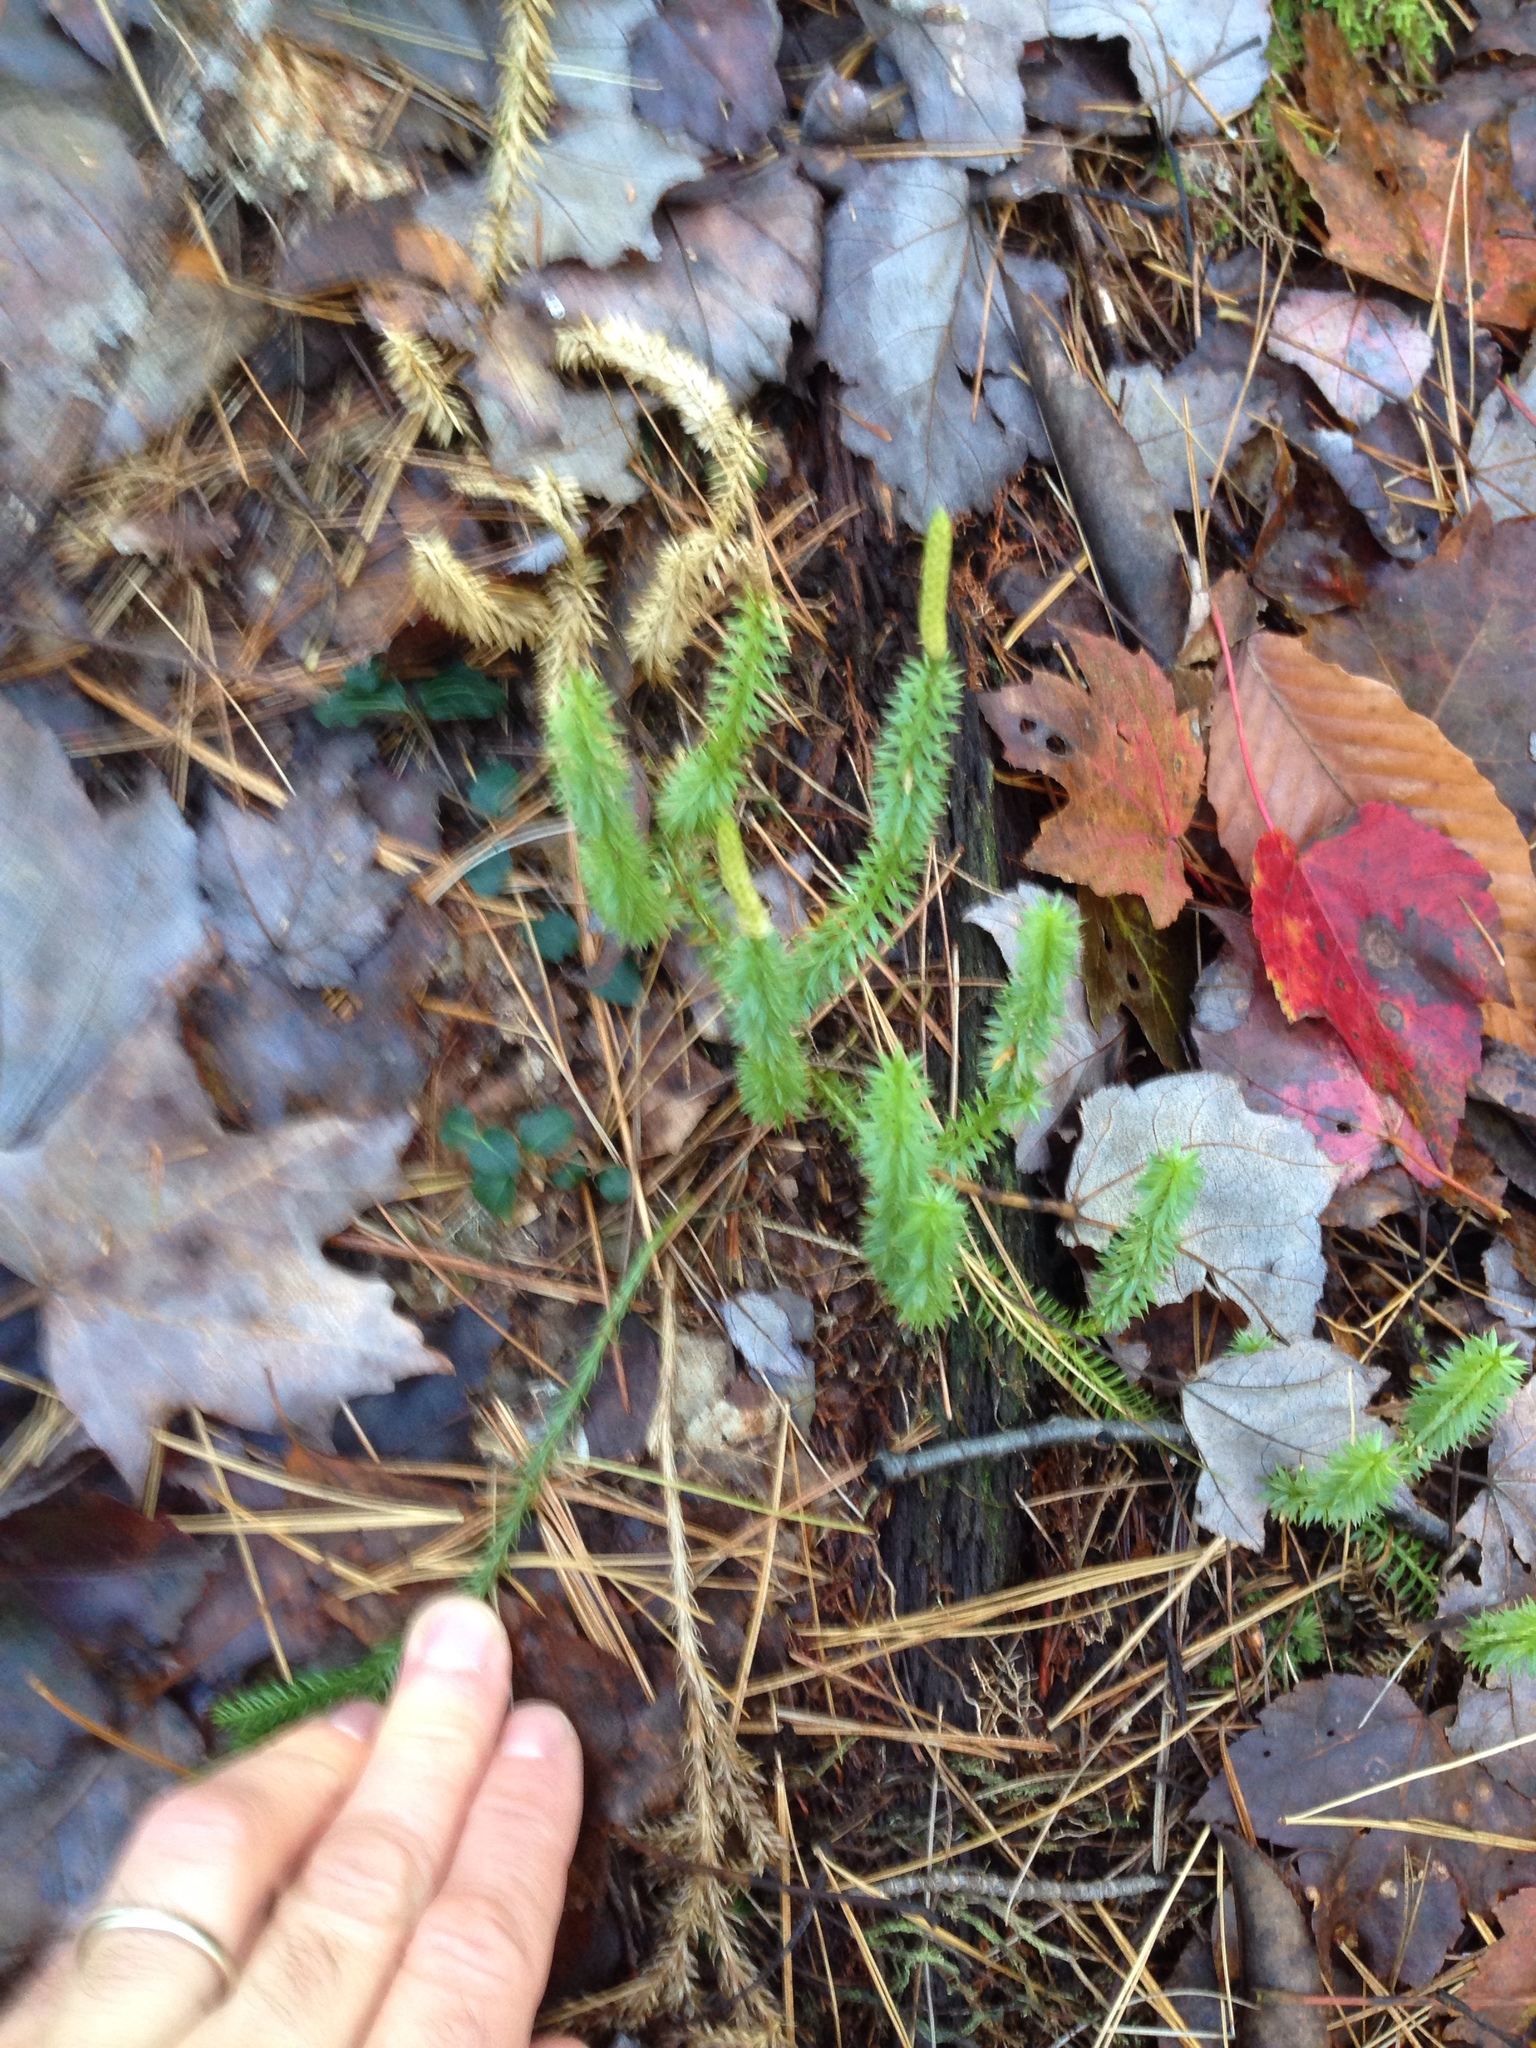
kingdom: Plantae
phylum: Tracheophyta
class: Lycopodiopsida
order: Lycopodiales
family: Lycopodiaceae
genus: Spinulum
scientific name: Spinulum annotinum
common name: Interrupted club-moss
